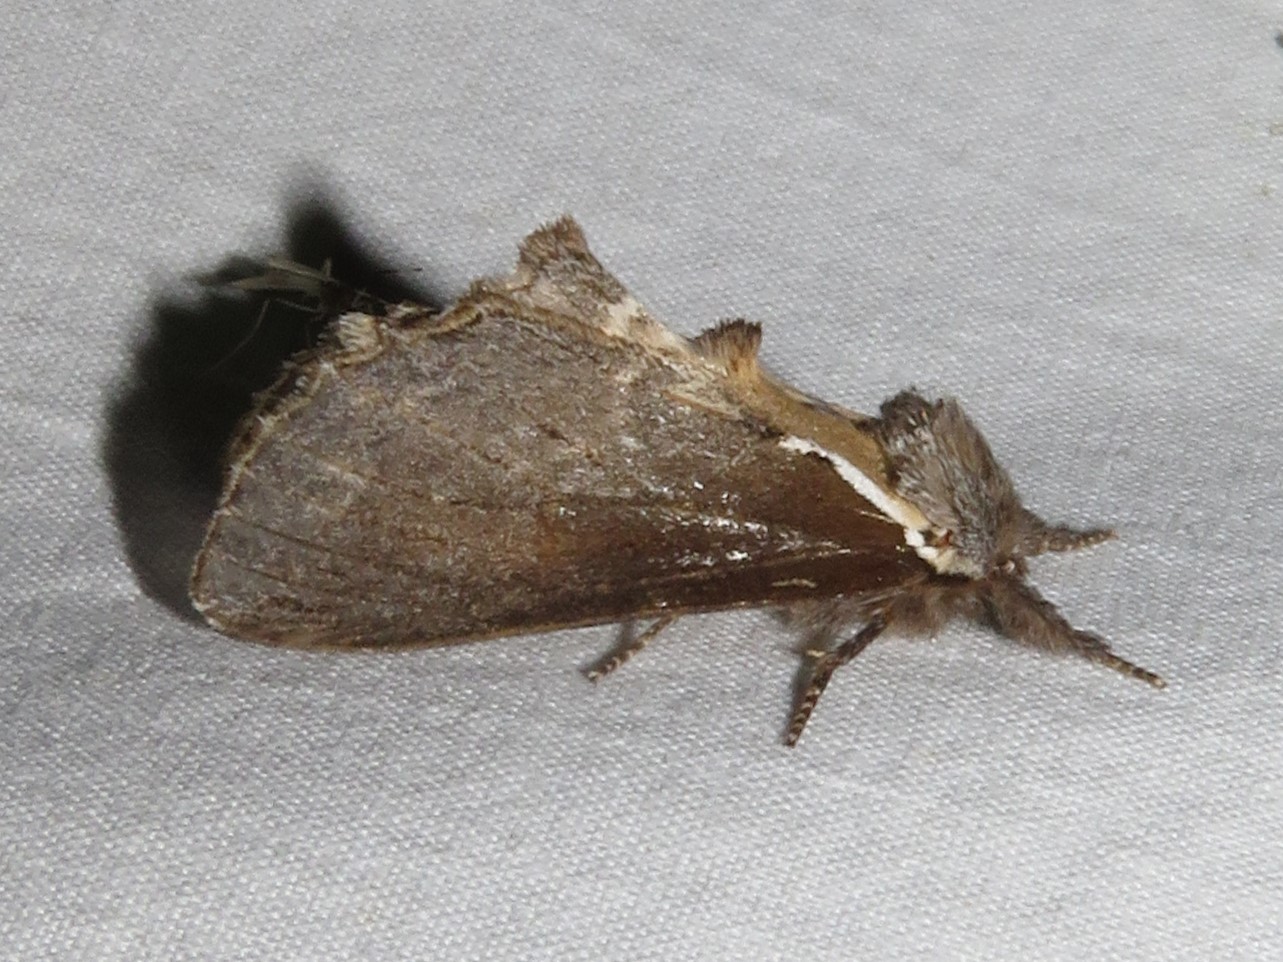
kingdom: Animalia
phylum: Arthropoda
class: Insecta
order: Lepidoptera
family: Notodontidae
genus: Pheosidea
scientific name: Pheosidea elegans
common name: Elegant prominent
